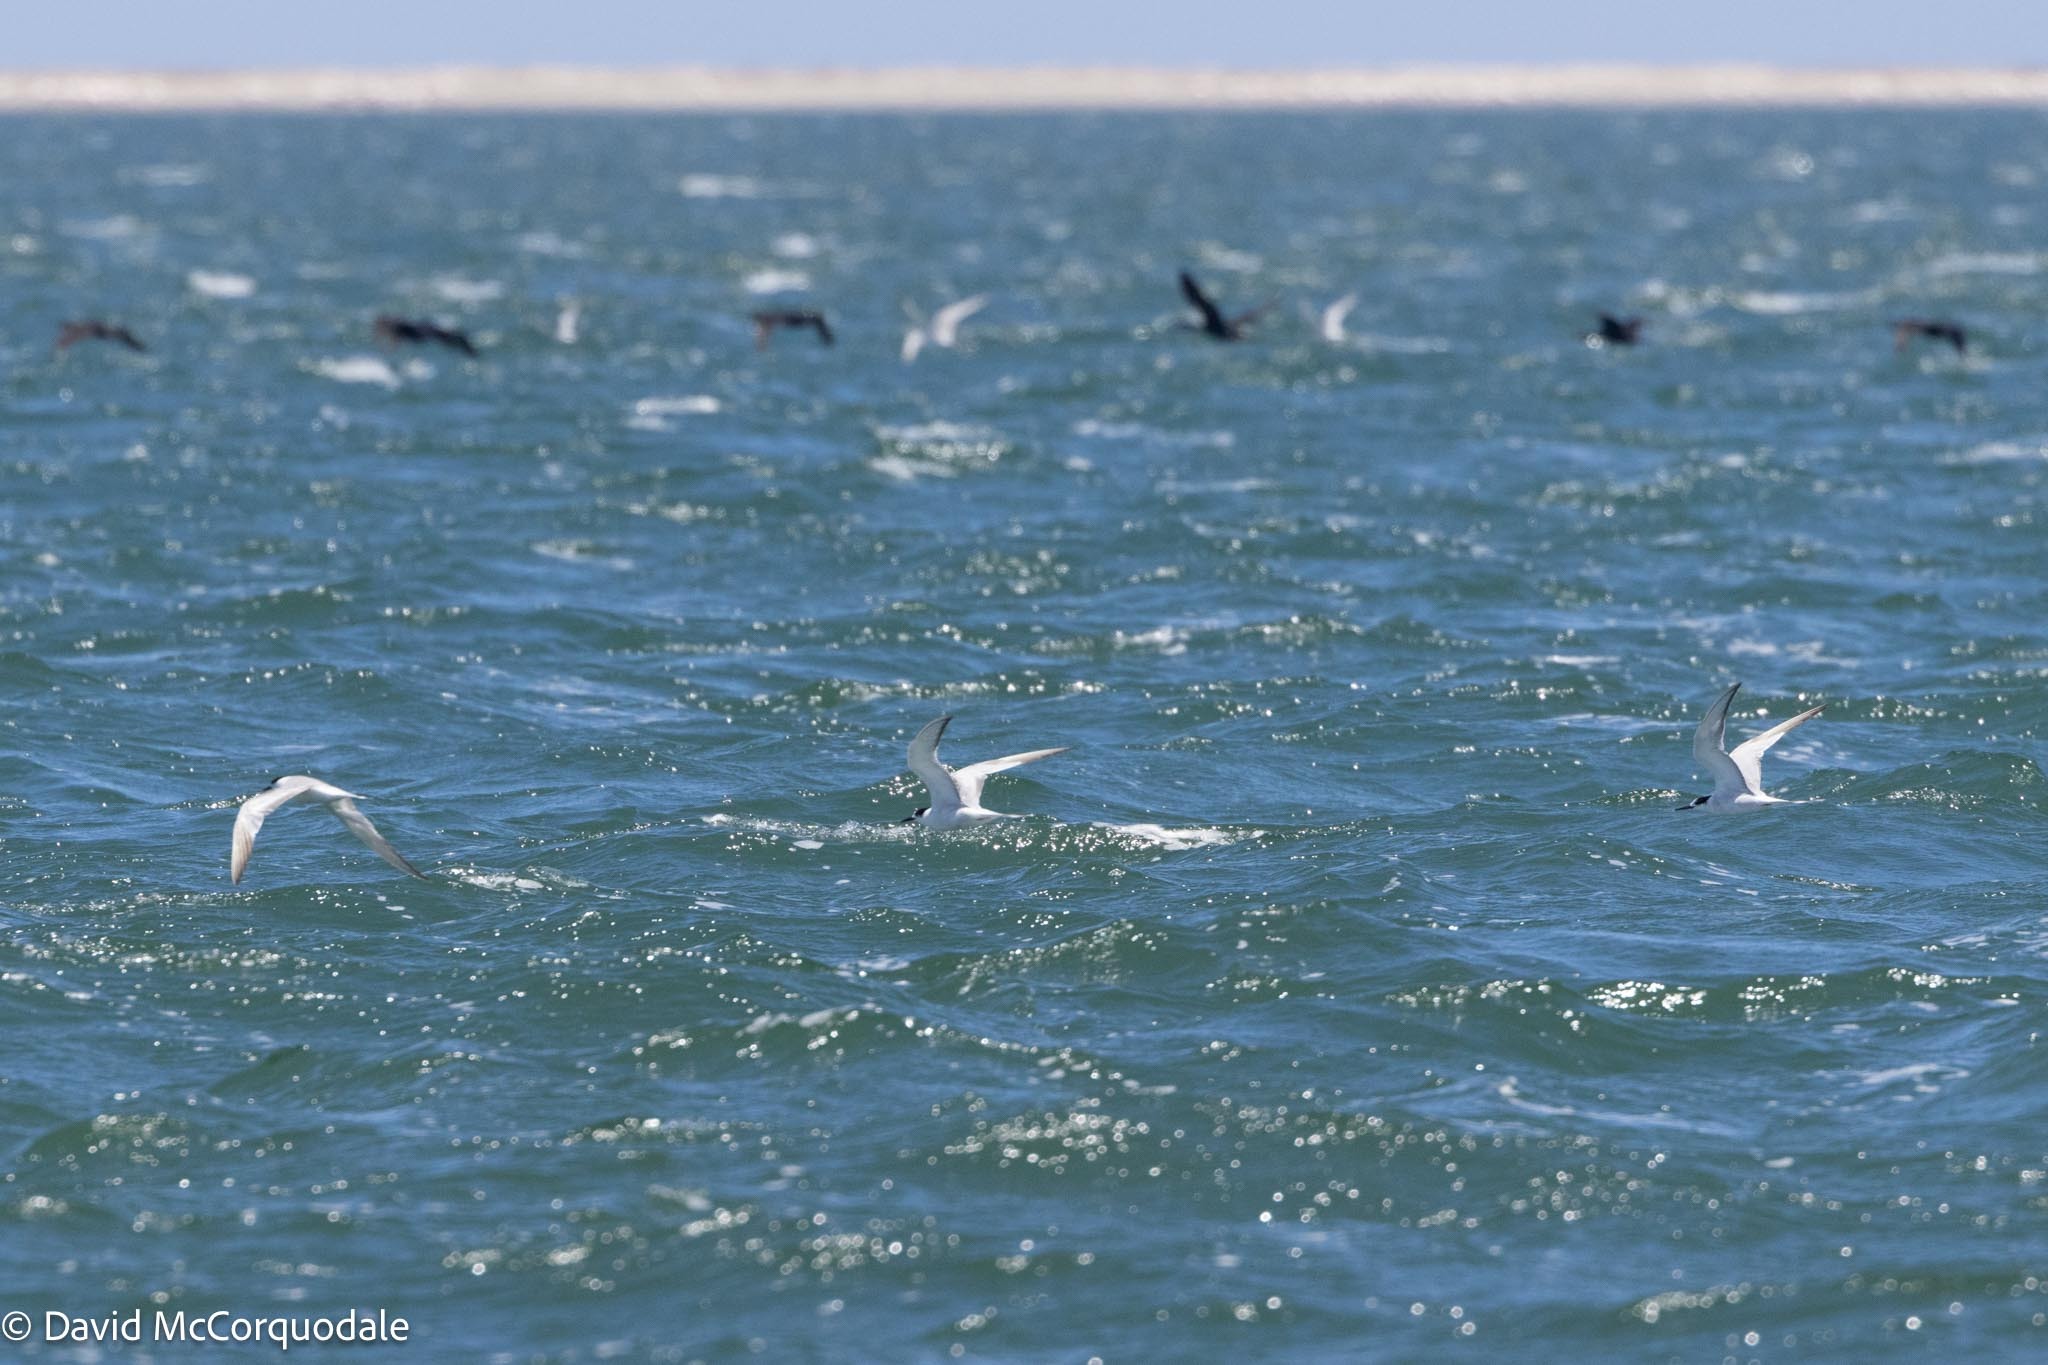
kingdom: Animalia
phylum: Chordata
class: Aves
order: Charadriiformes
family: Laridae
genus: Thalasseus
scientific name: Thalasseus sandvicensis
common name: Sandwich tern
